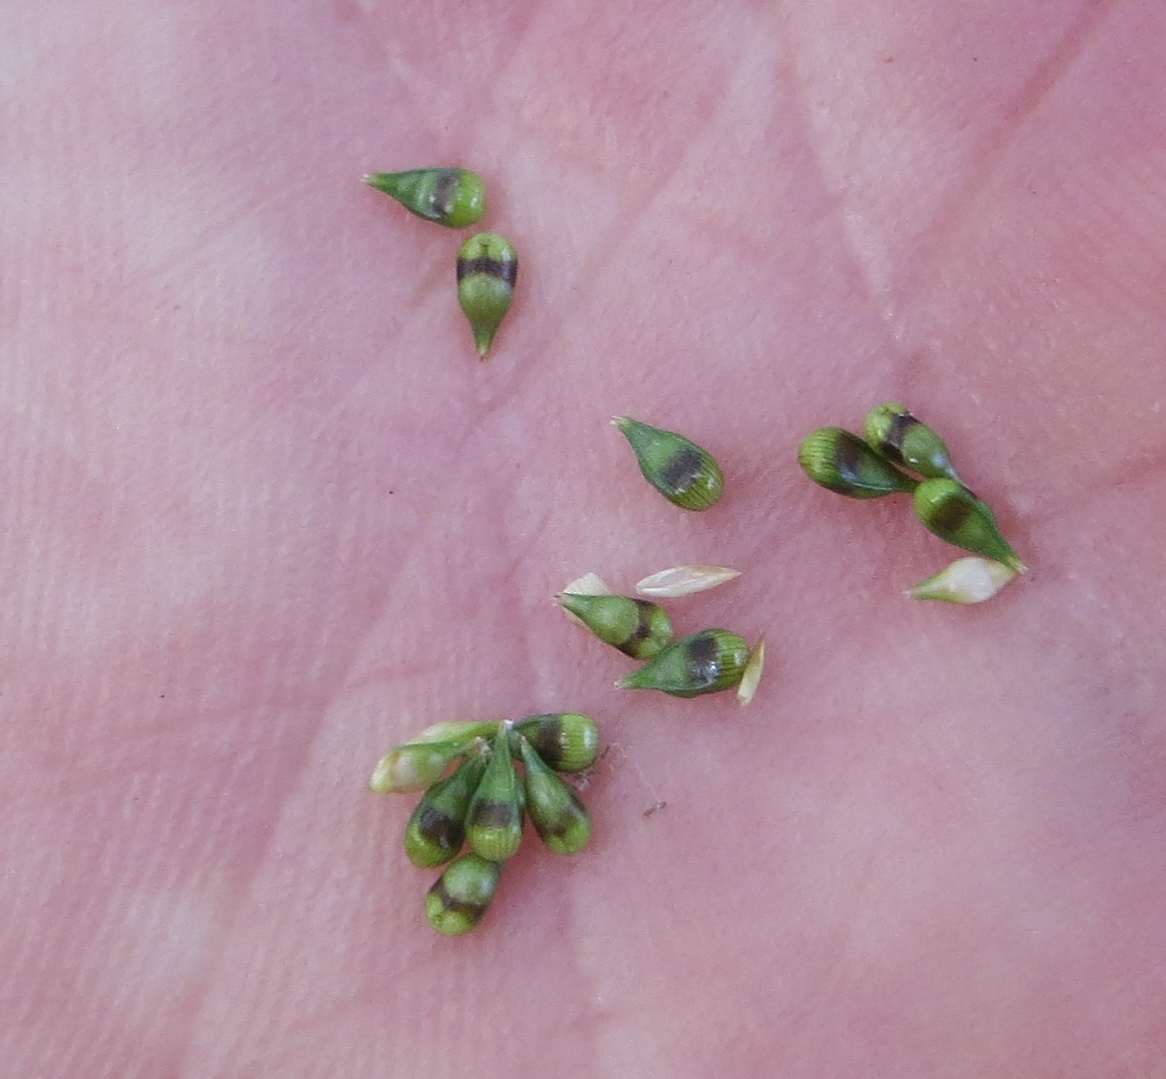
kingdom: Plantae
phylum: Tracheophyta
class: Liliopsida
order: Poales
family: Cyperaceae
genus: Carex
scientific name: Carex retroflexa
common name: Reflexed sedge
